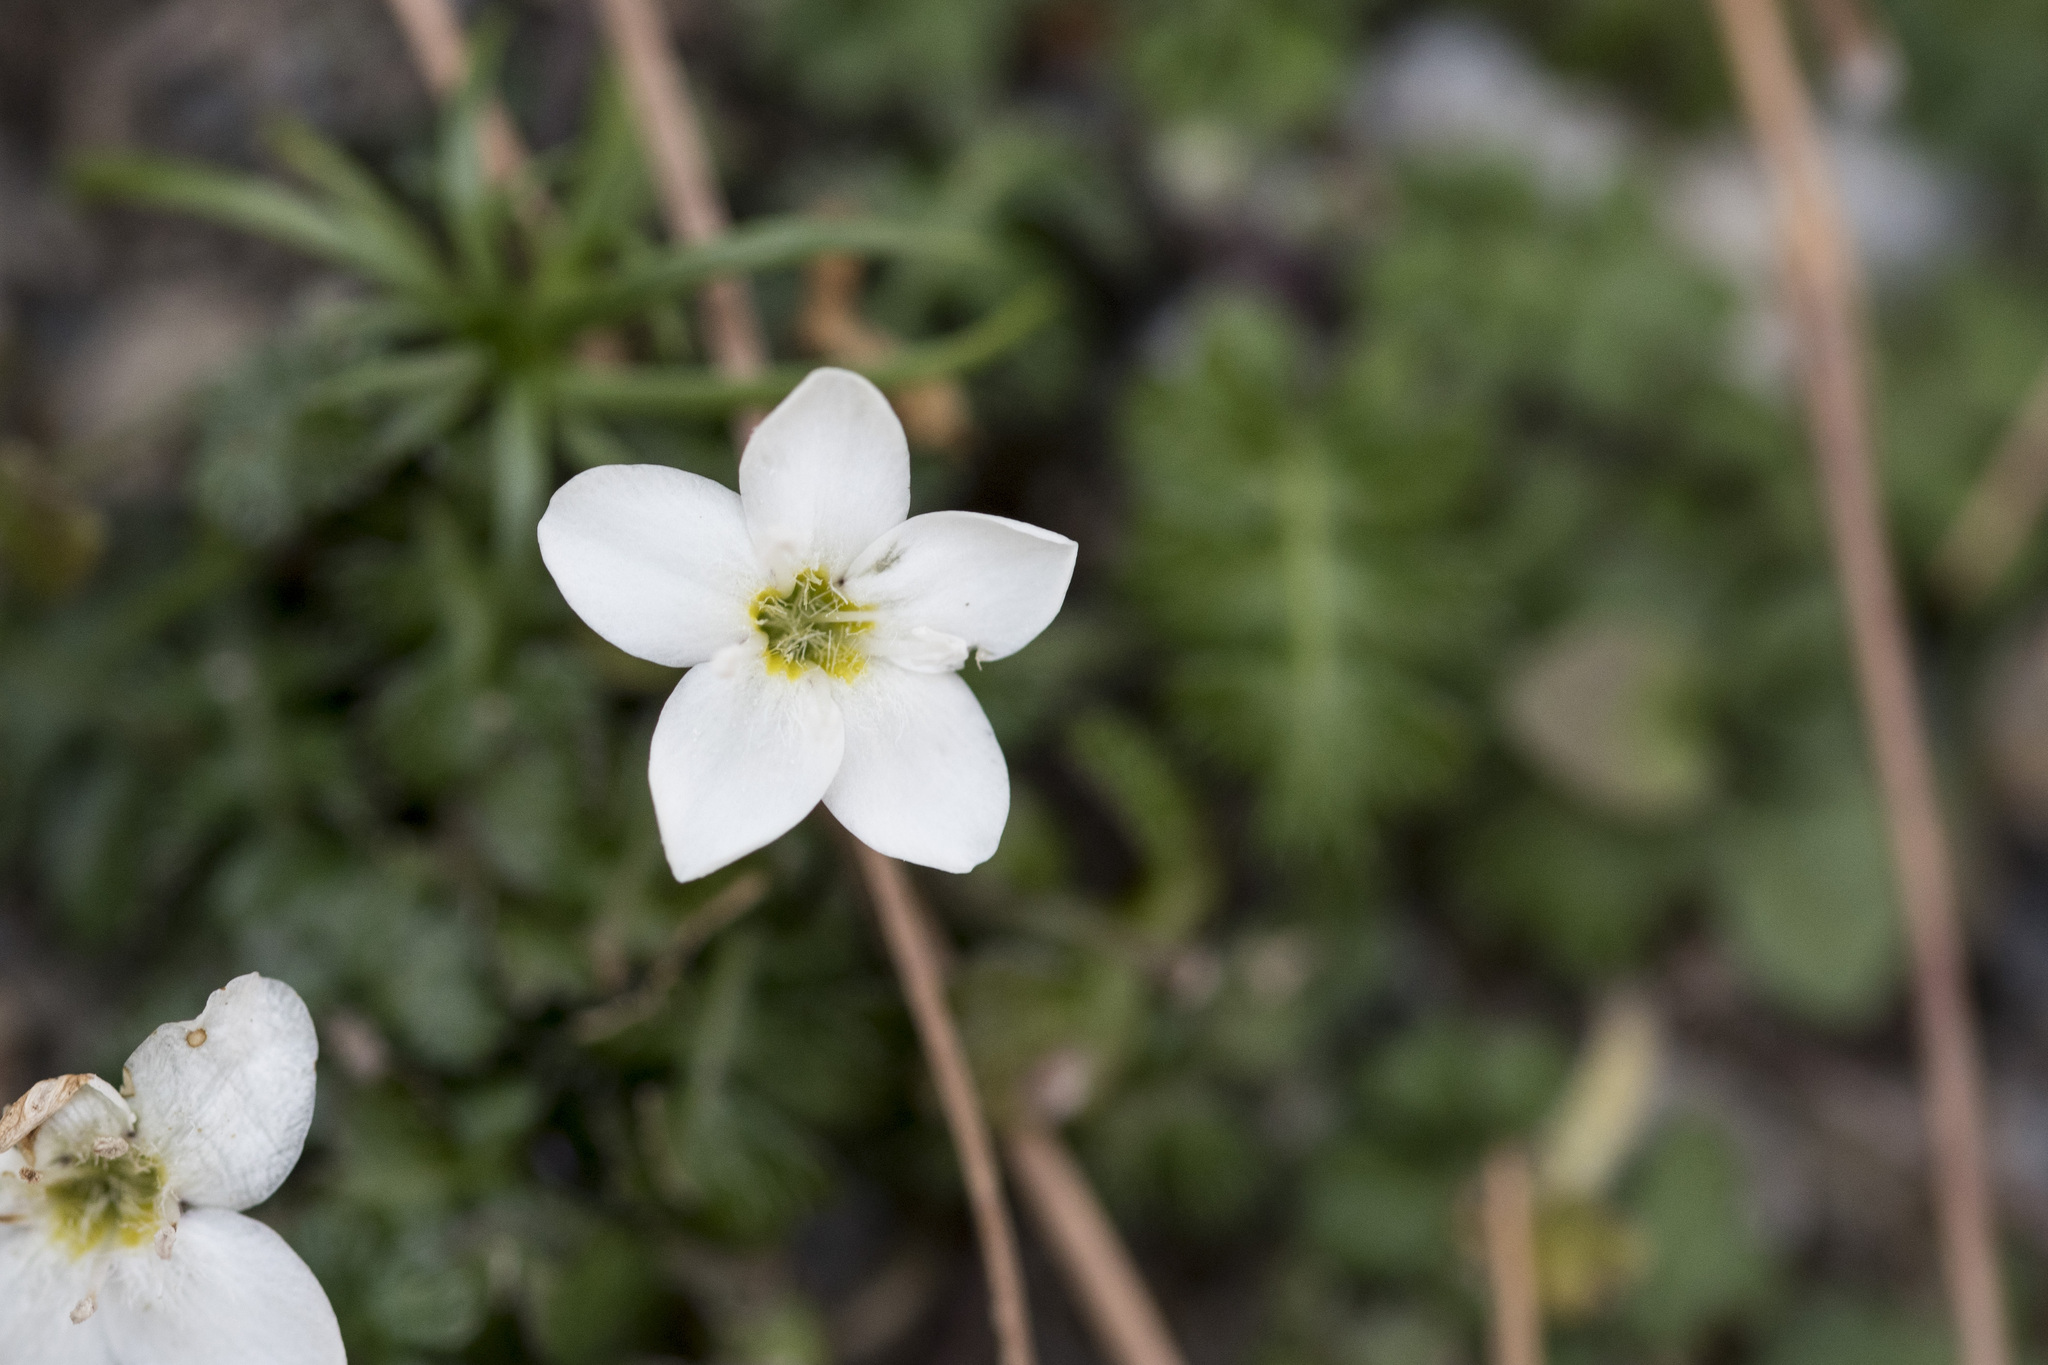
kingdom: Plantae
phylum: Tracheophyta
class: Magnoliopsida
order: Lamiales
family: Plantaginaceae
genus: Ellisiophyllum
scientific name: Ellisiophyllum pinnatum
